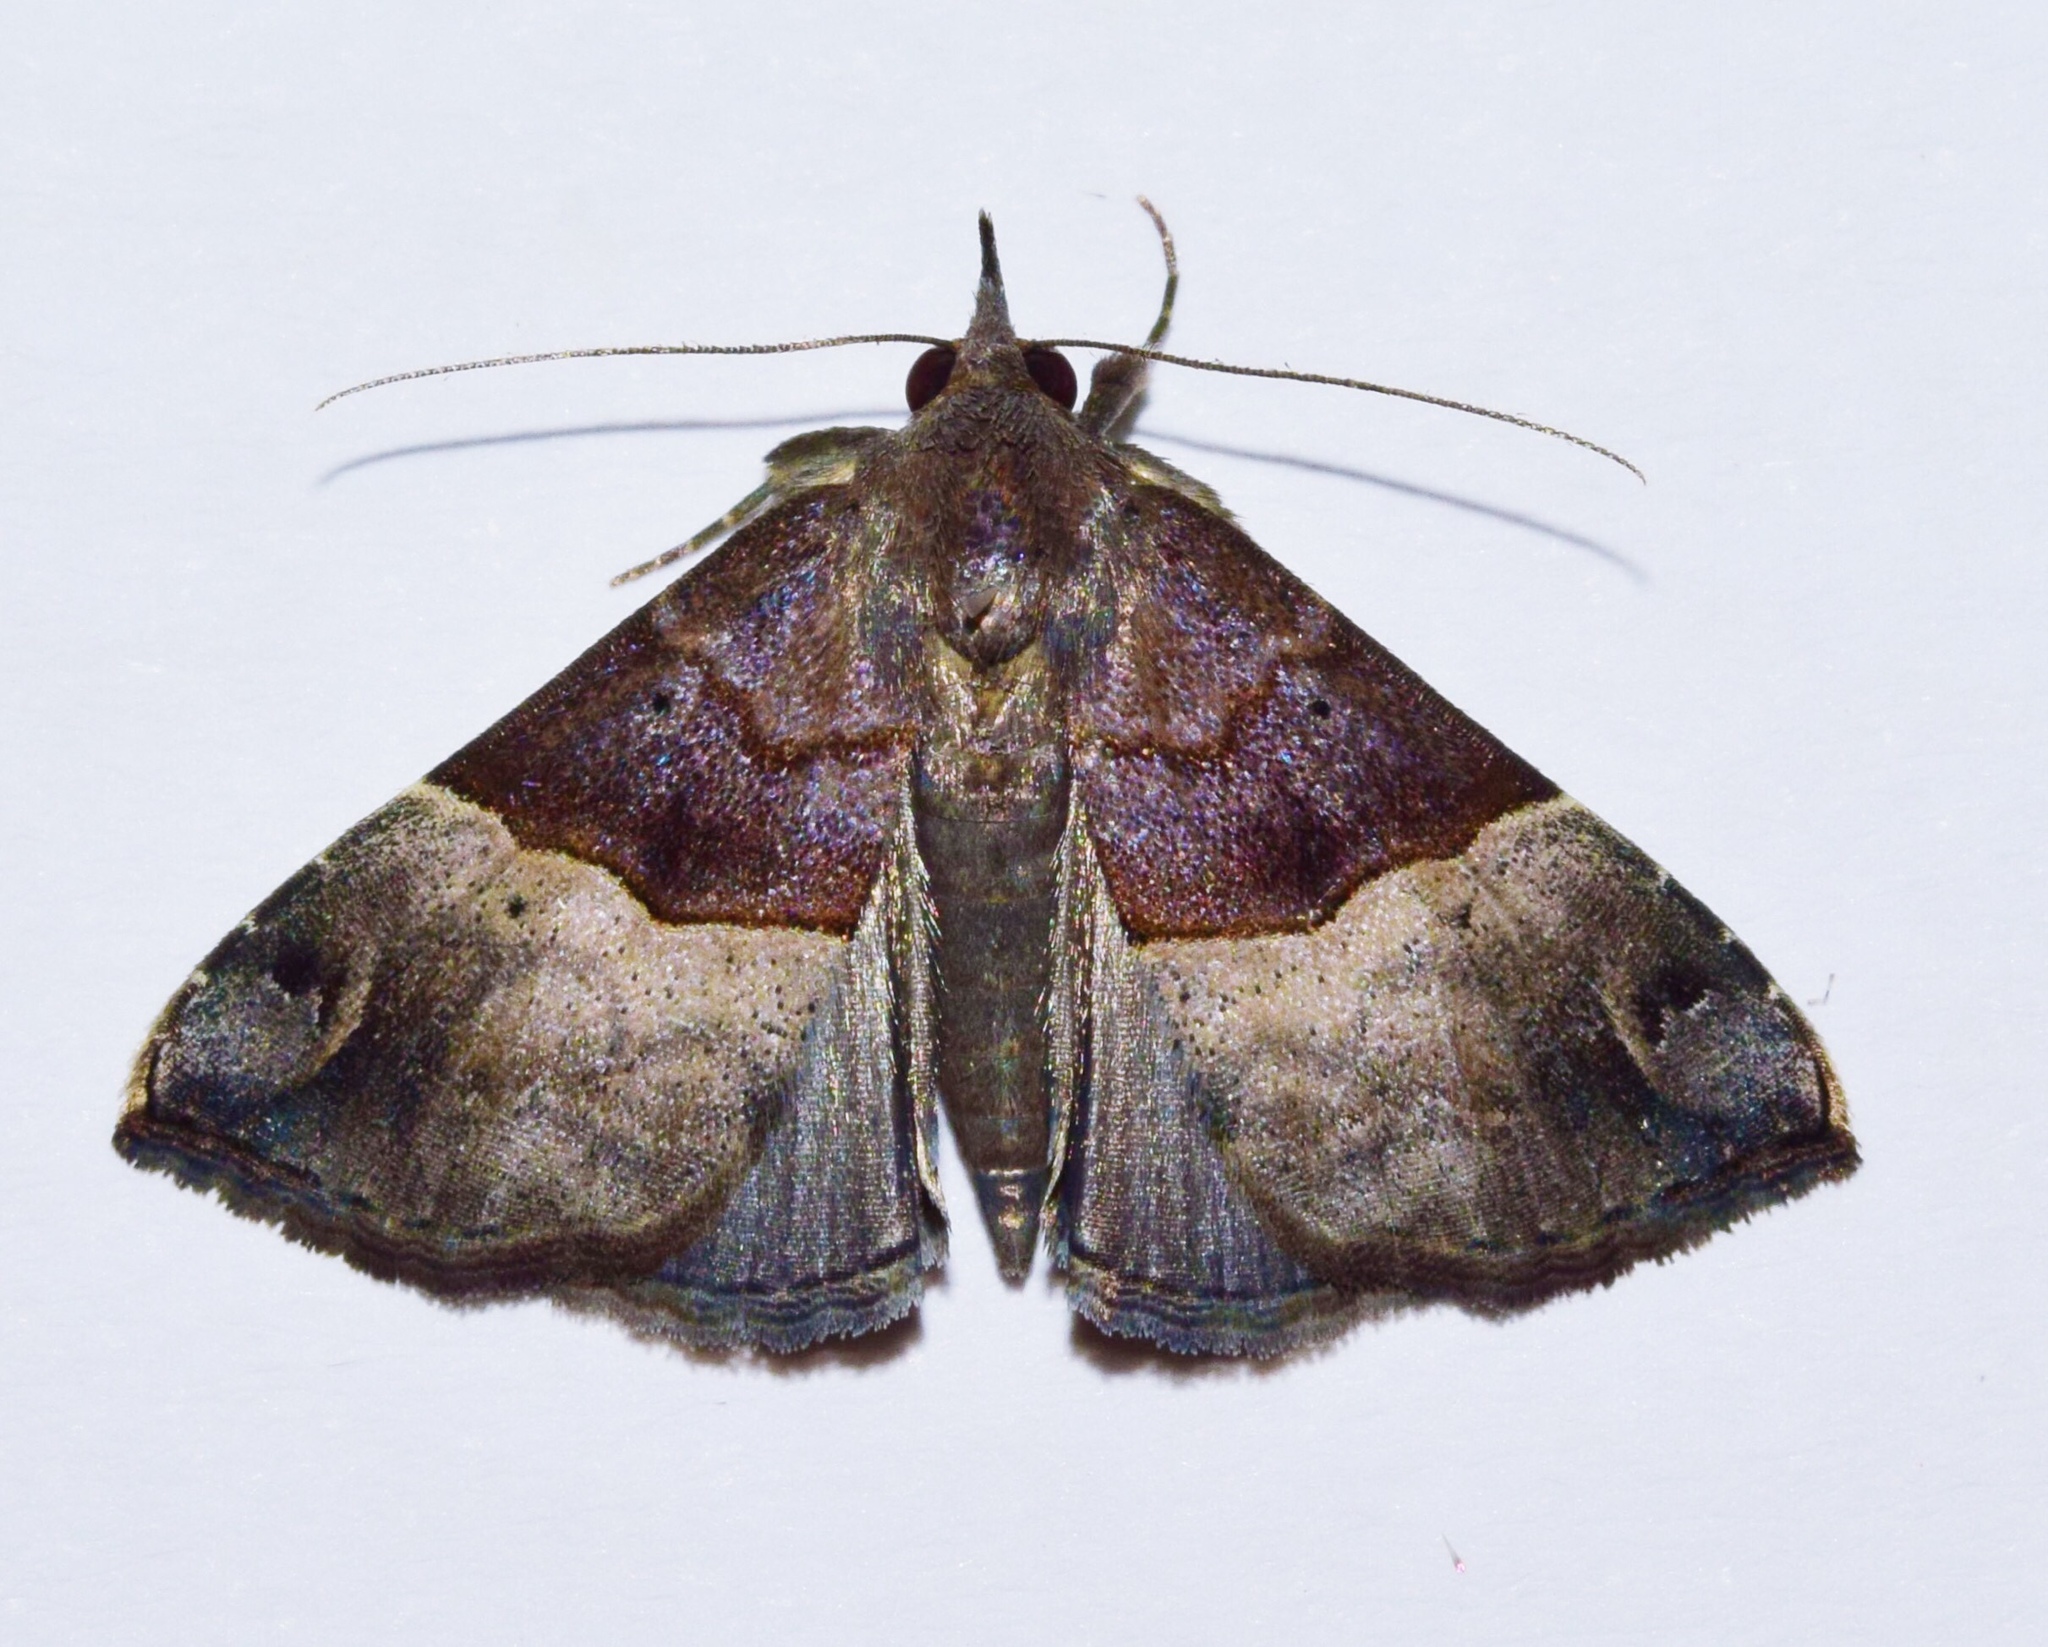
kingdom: Animalia
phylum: Arthropoda
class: Insecta
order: Lepidoptera
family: Erebidae
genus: Hypena
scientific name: Hypena
